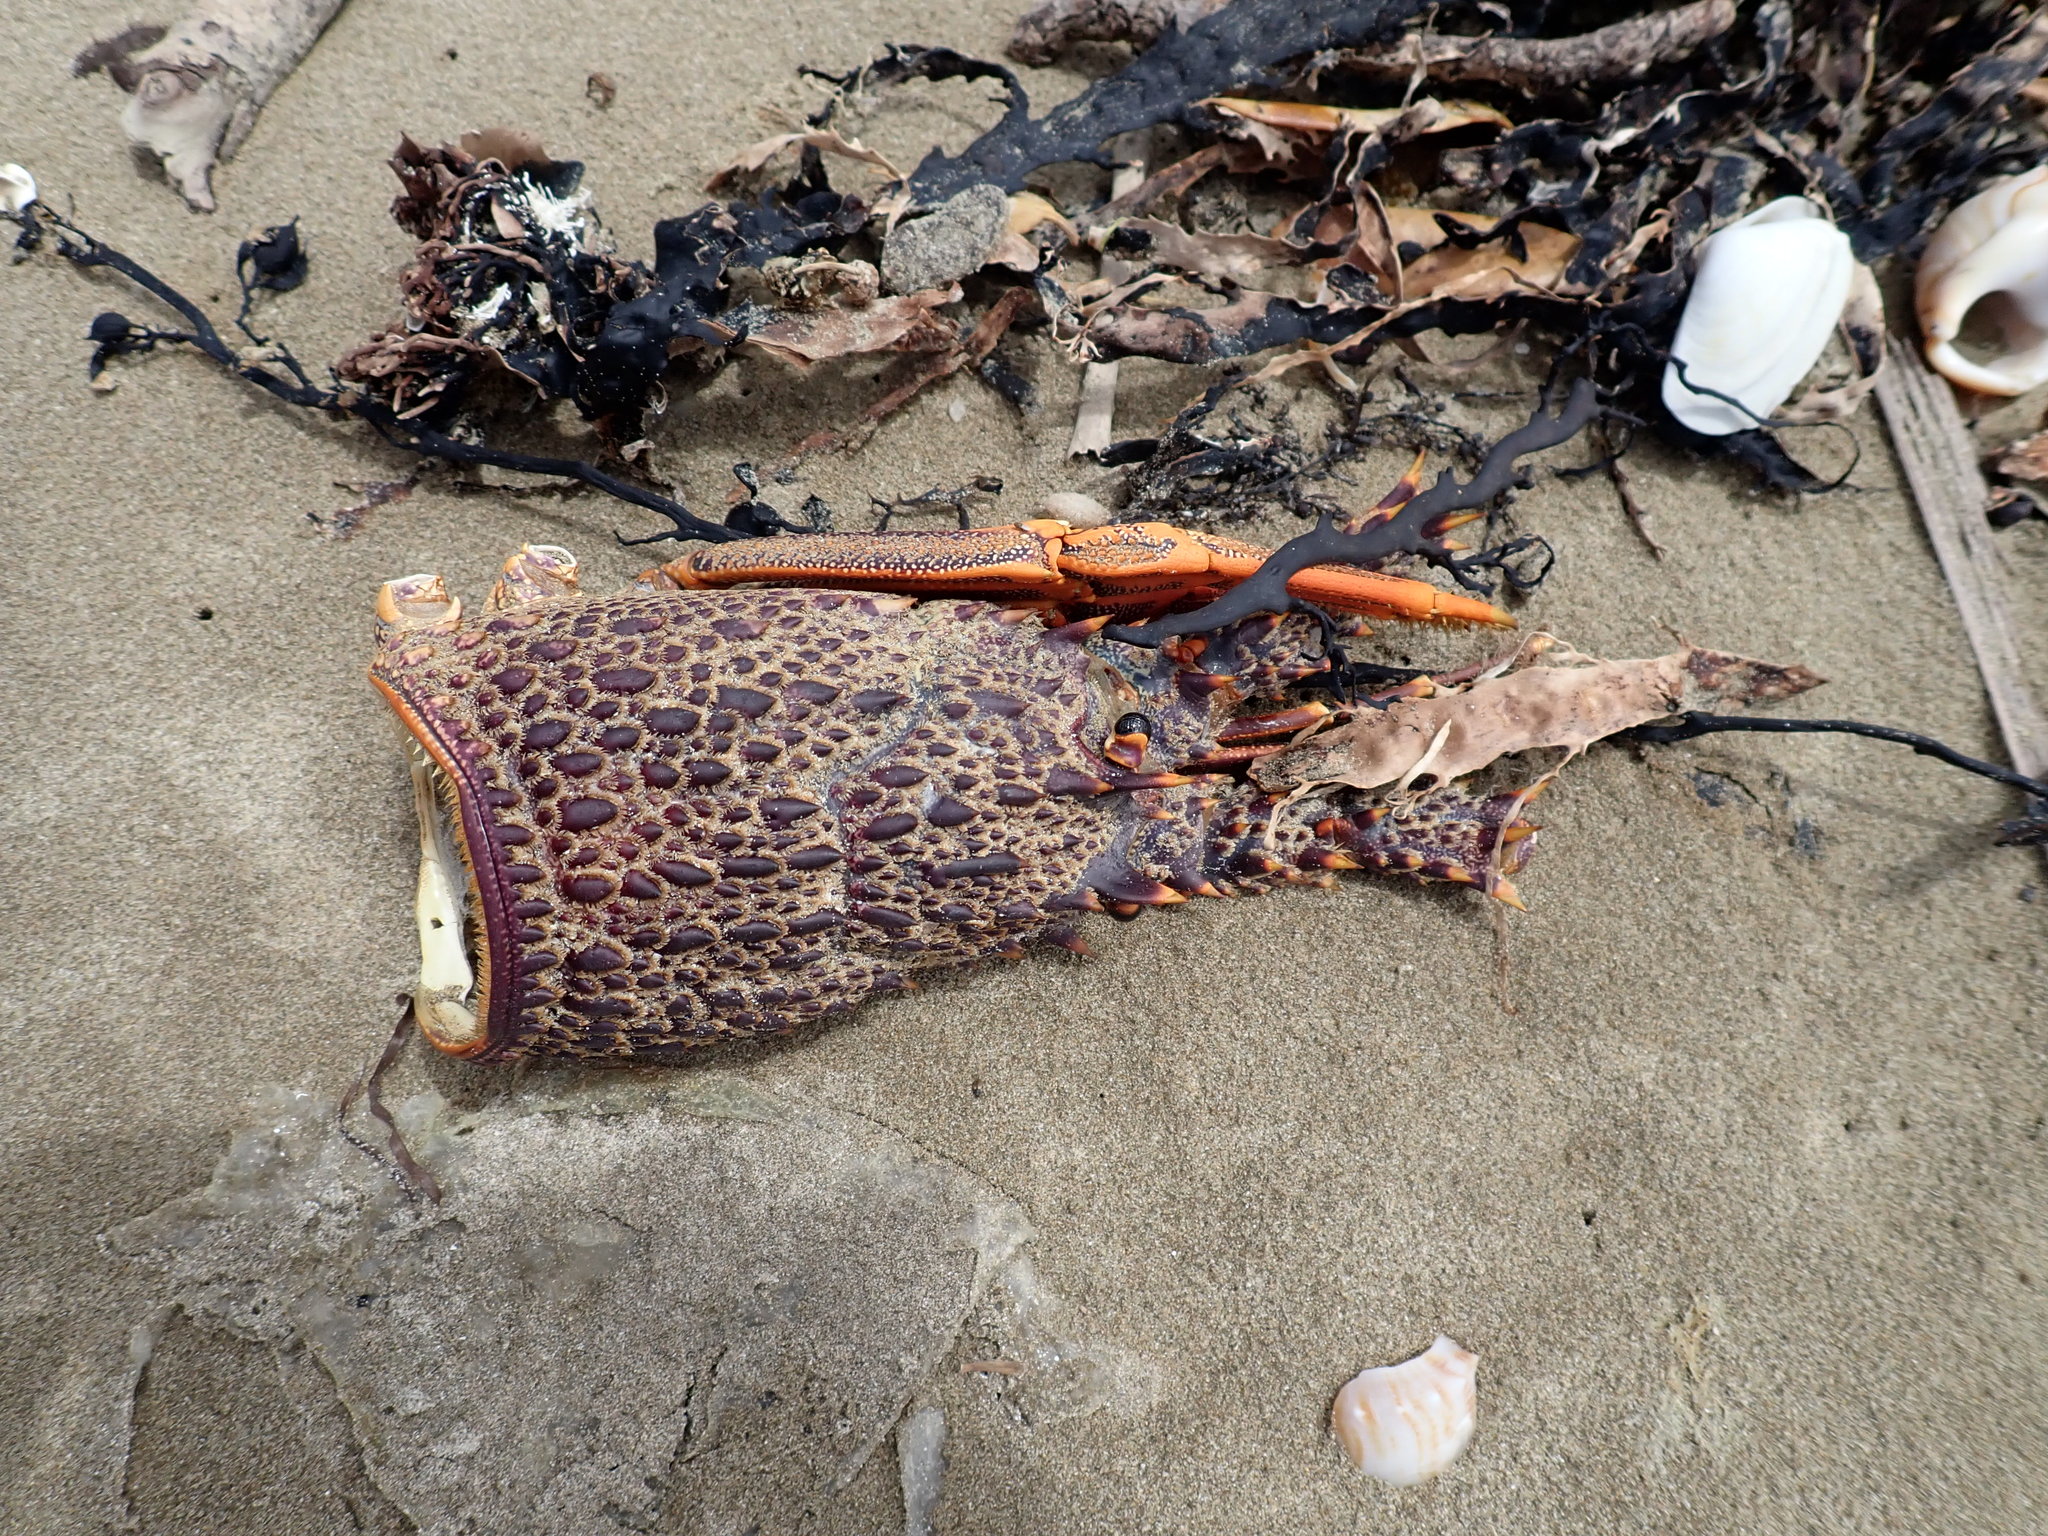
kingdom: Animalia
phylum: Arthropoda
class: Malacostraca
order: Decapoda
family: Palinuridae
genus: Jasus
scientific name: Jasus edwardsii
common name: Red rock lobster
